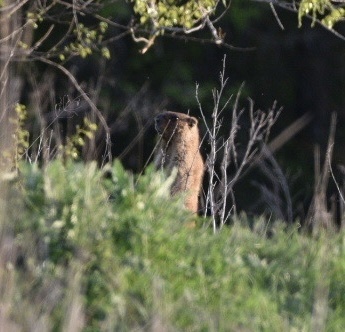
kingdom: Animalia
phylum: Chordata
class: Mammalia
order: Rodentia
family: Sciuridae
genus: Marmota
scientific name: Marmota bobak
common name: Bobak marmot
